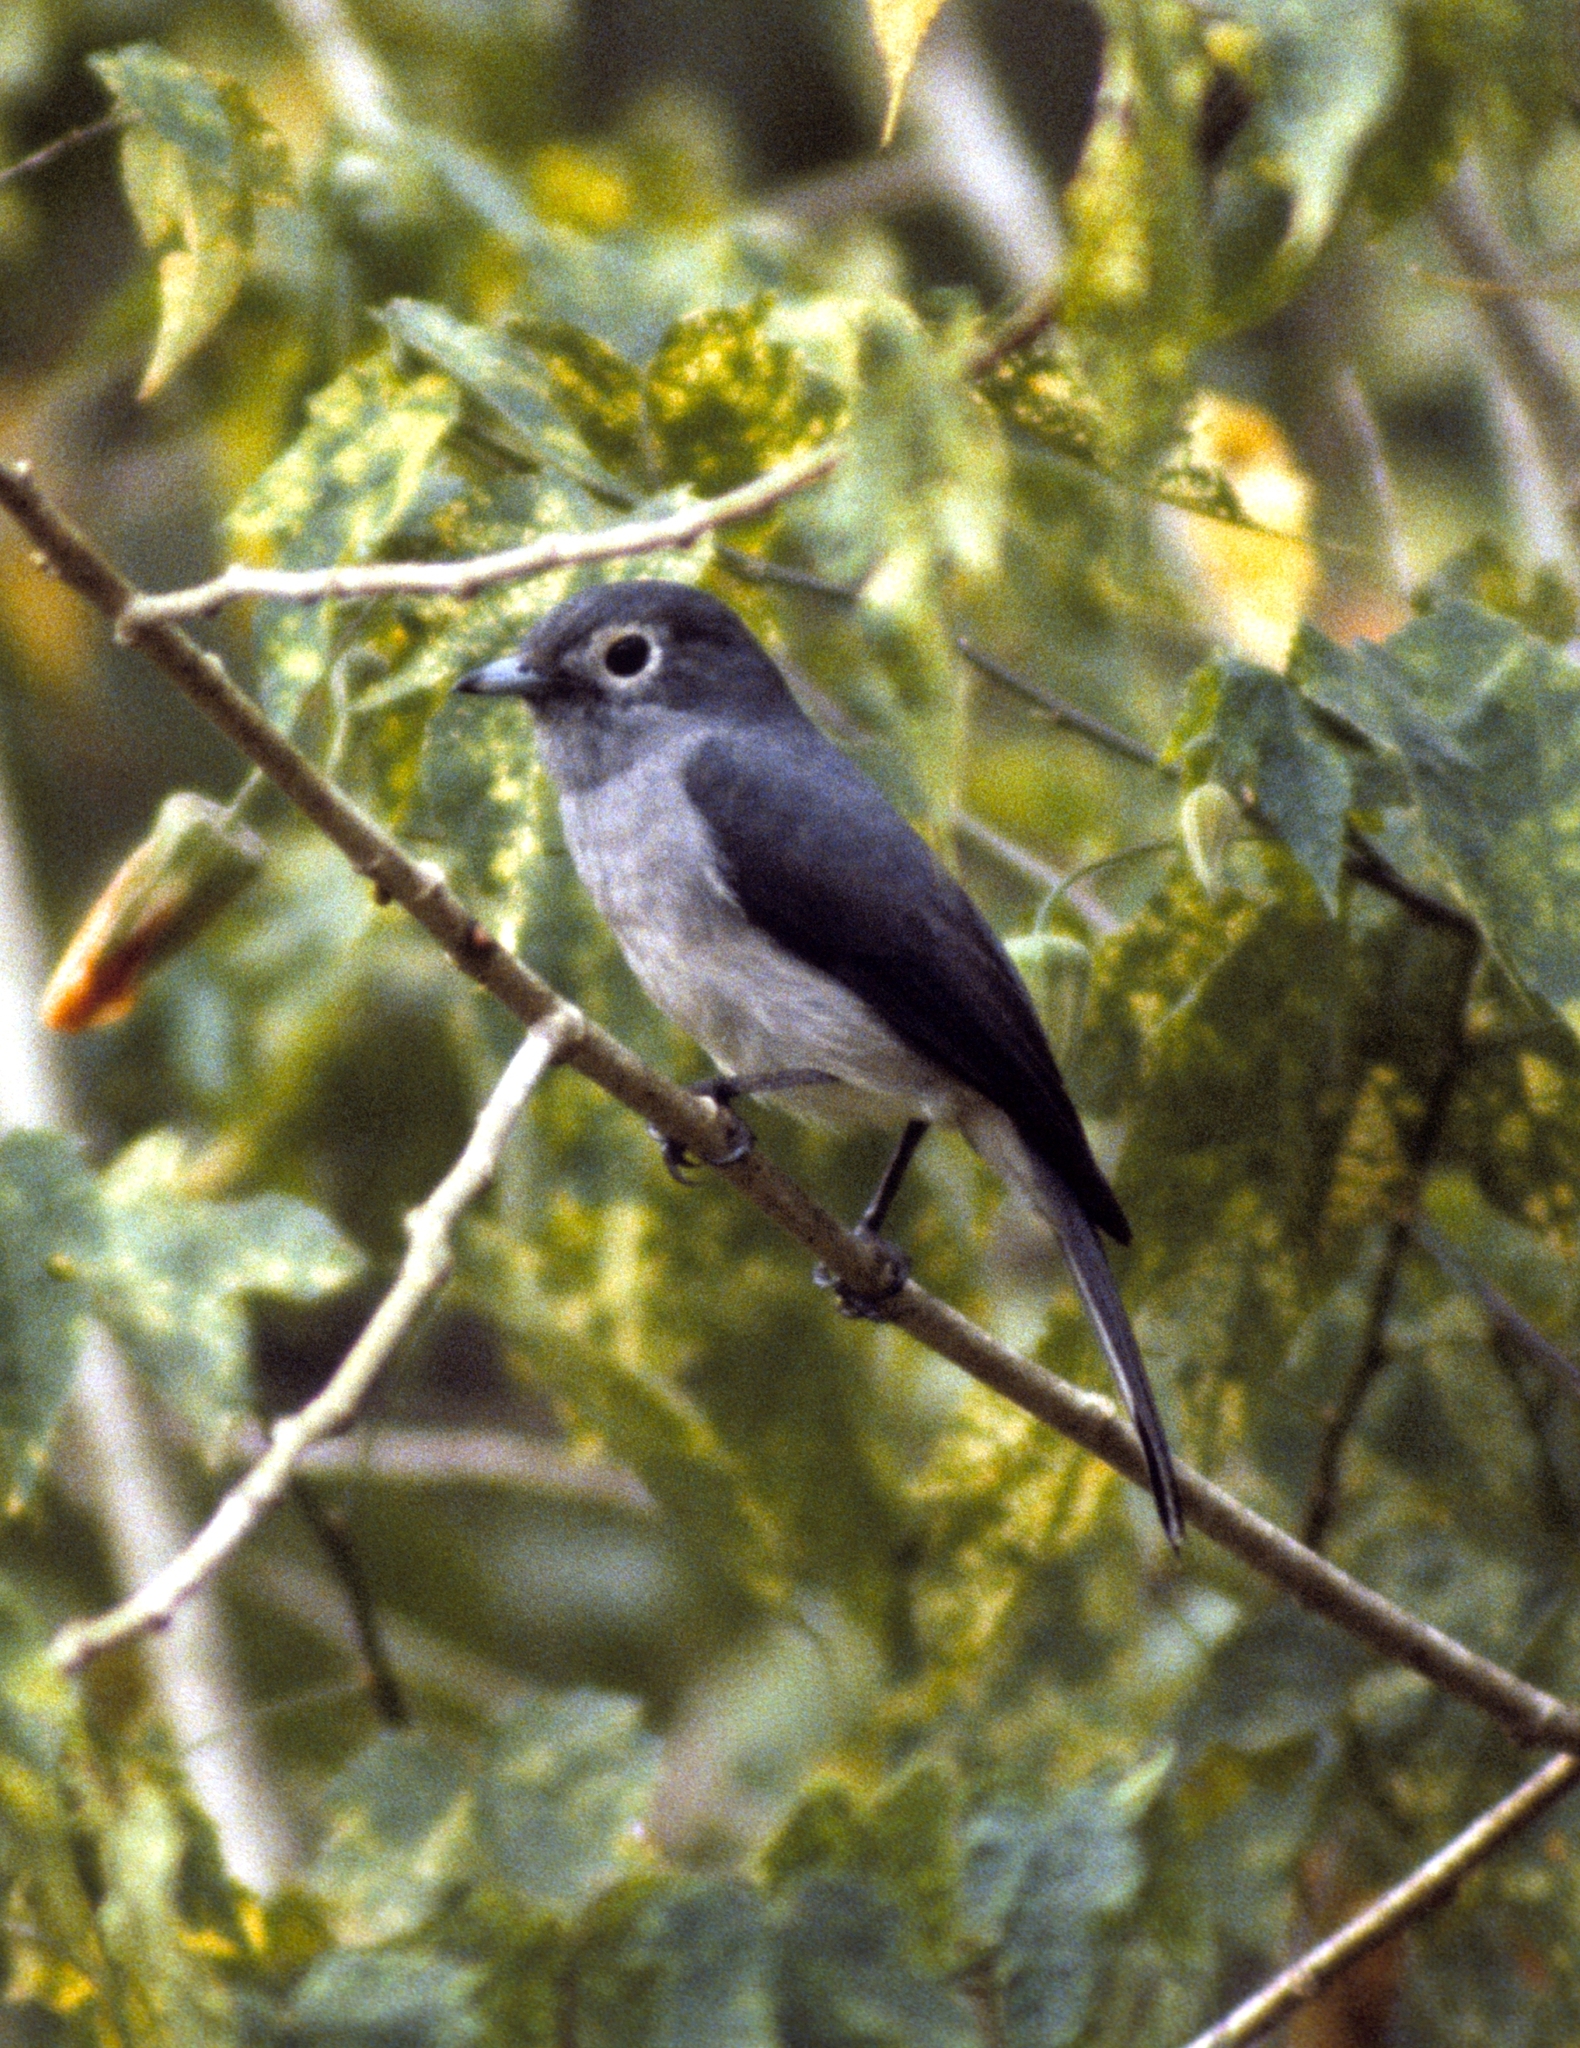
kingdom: Animalia
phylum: Chordata
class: Aves
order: Passeriformes
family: Muscicapidae
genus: Dioptrornis
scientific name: Dioptrornis fischeri
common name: White-eyed slaty flycatcher
